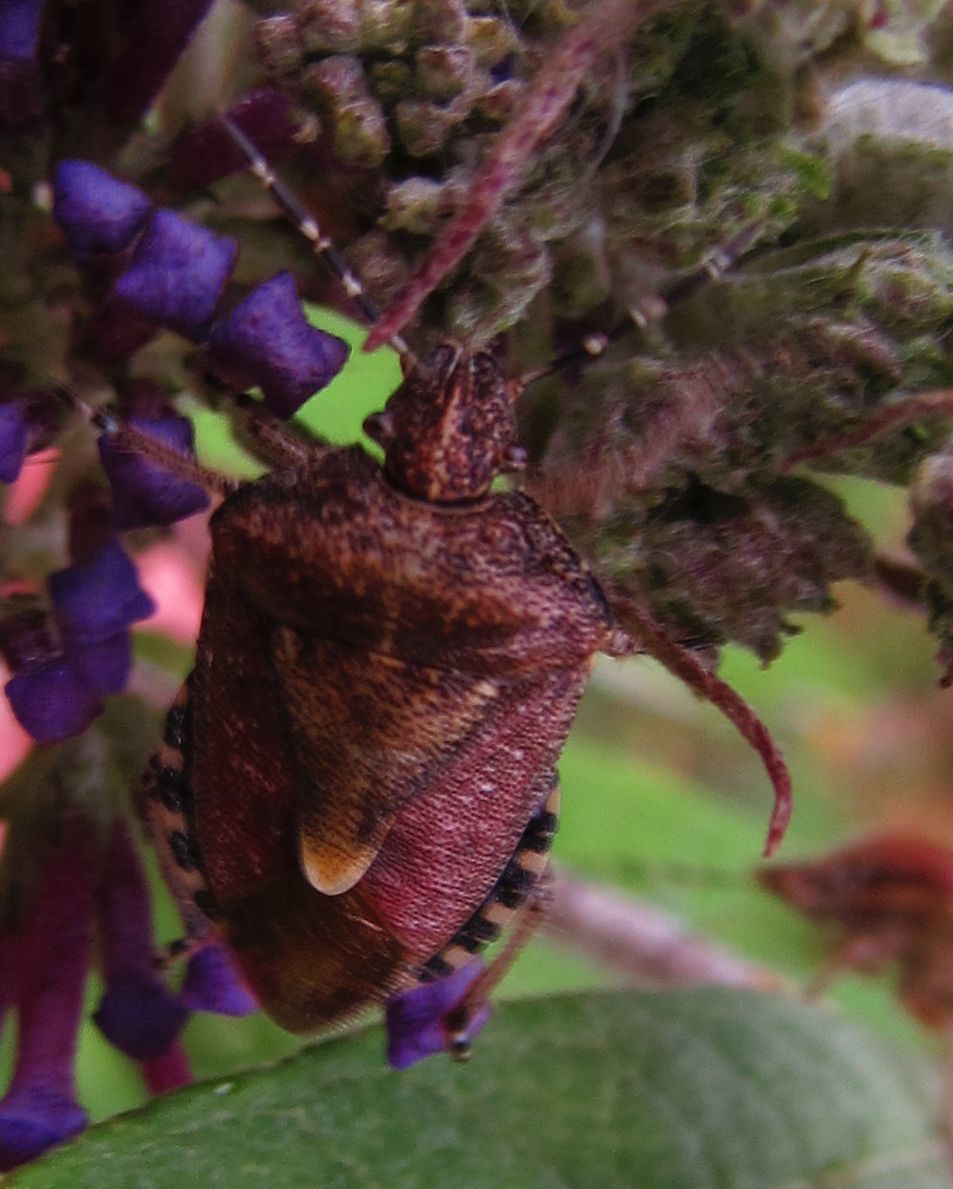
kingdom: Animalia
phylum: Arthropoda
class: Insecta
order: Hemiptera
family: Pentatomidae
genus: Dolycoris
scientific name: Dolycoris baccarum
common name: Sloe bug
